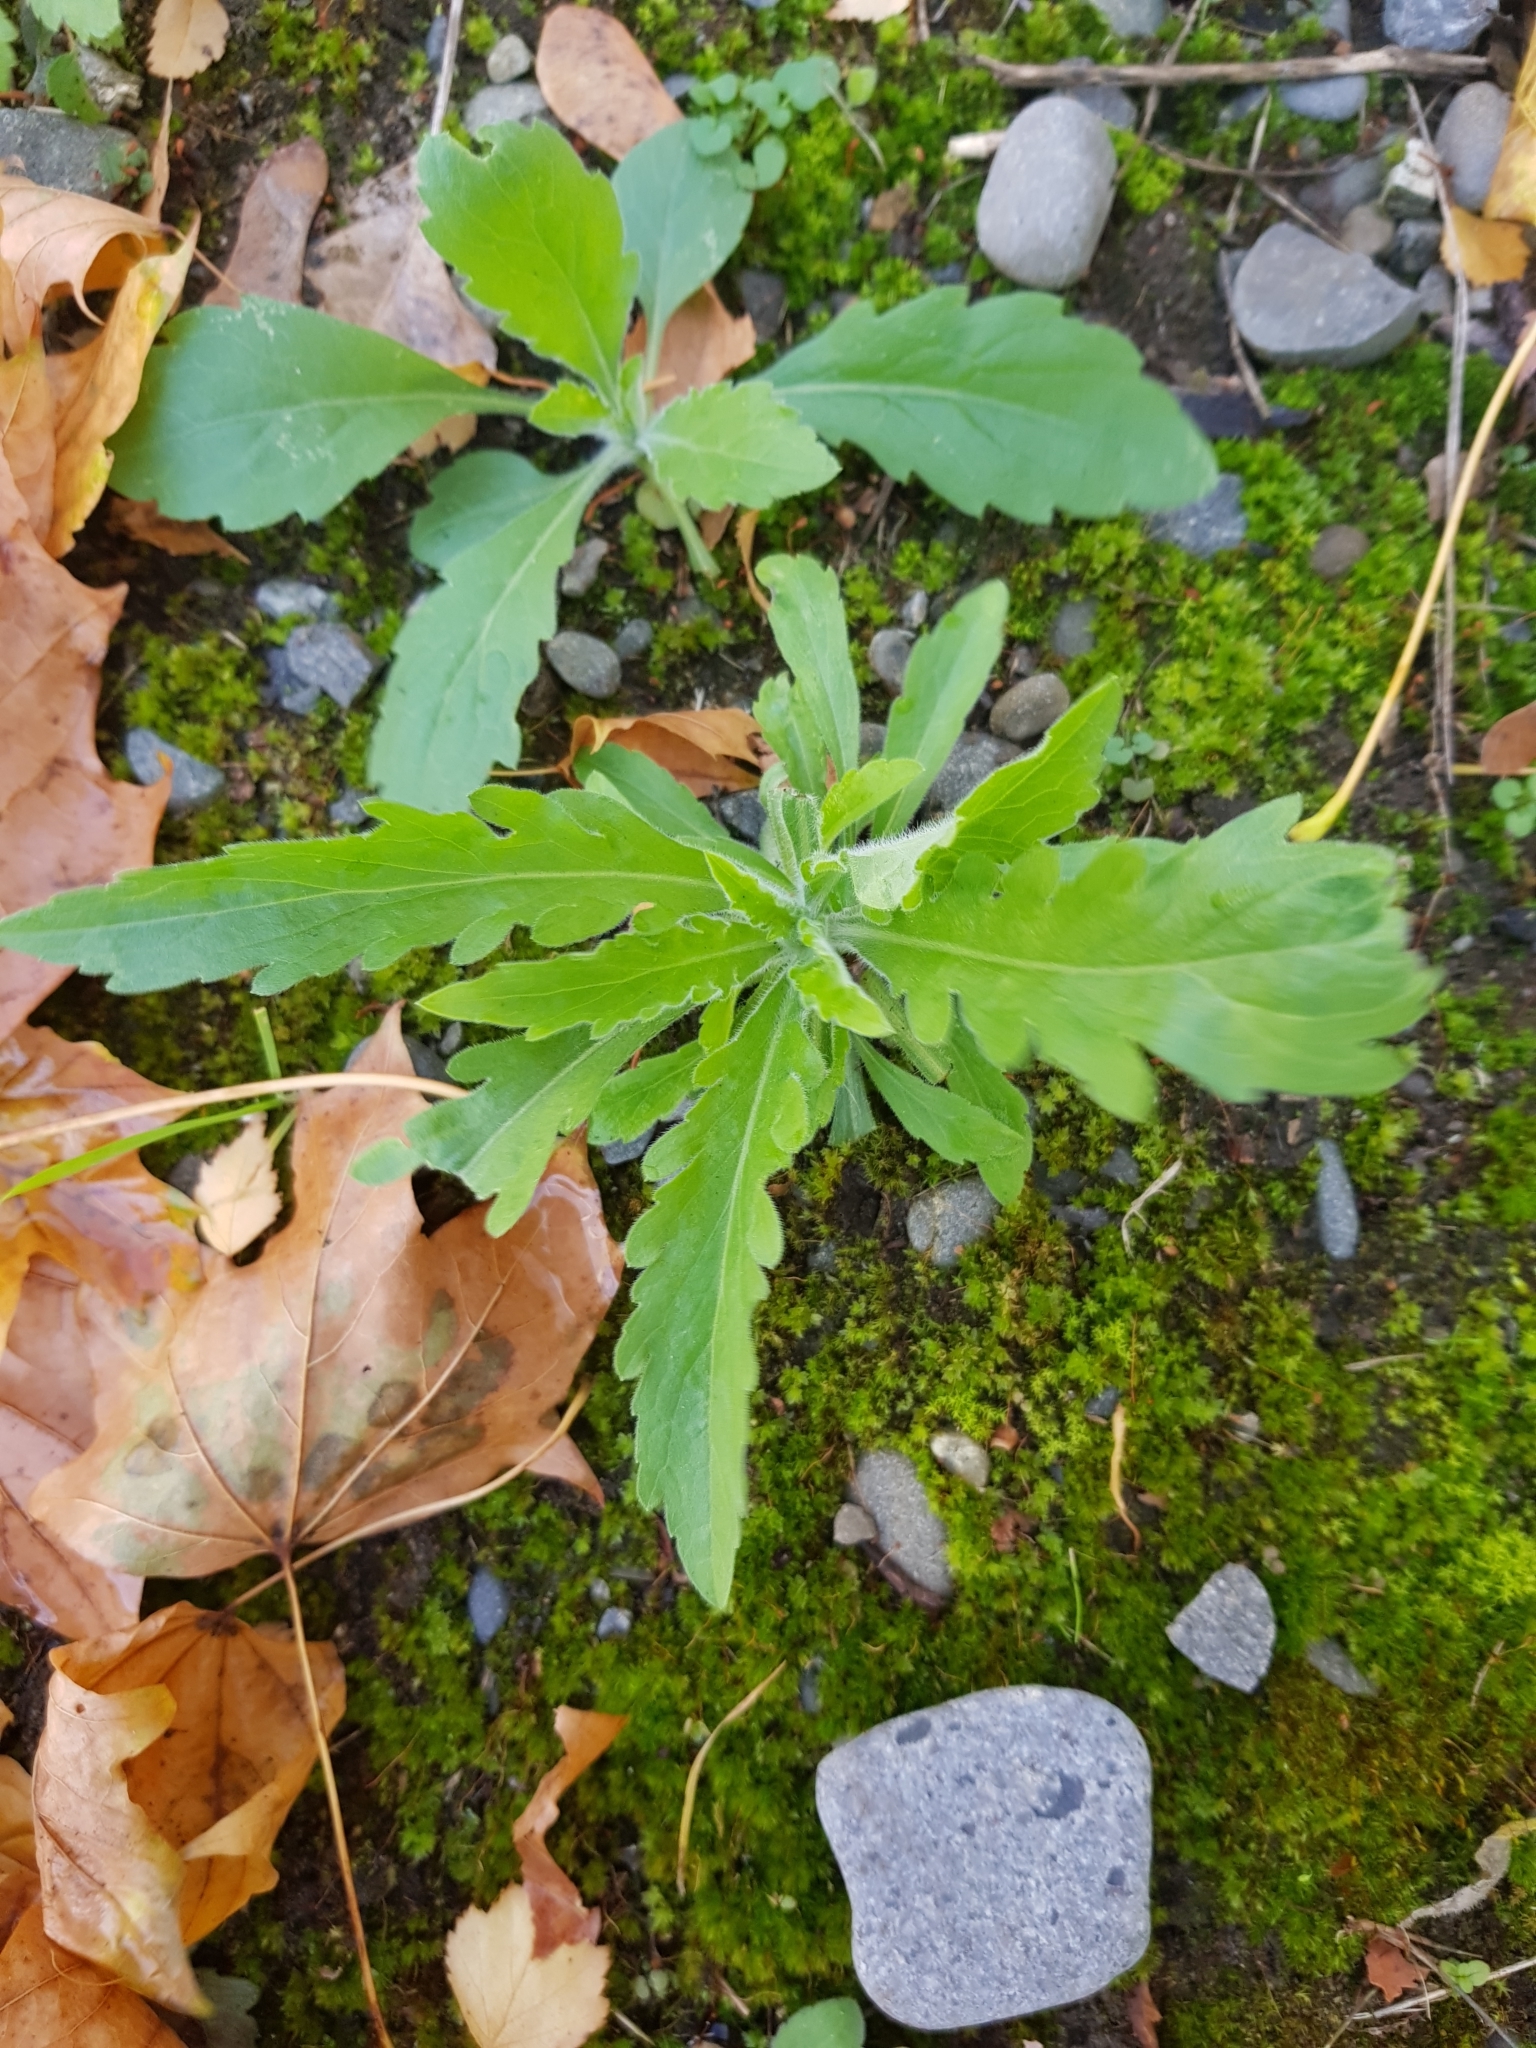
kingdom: Plantae
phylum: Tracheophyta
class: Magnoliopsida
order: Asterales
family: Asteraceae
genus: Erigeron
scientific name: Erigeron sumatrensis
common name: Daisy
